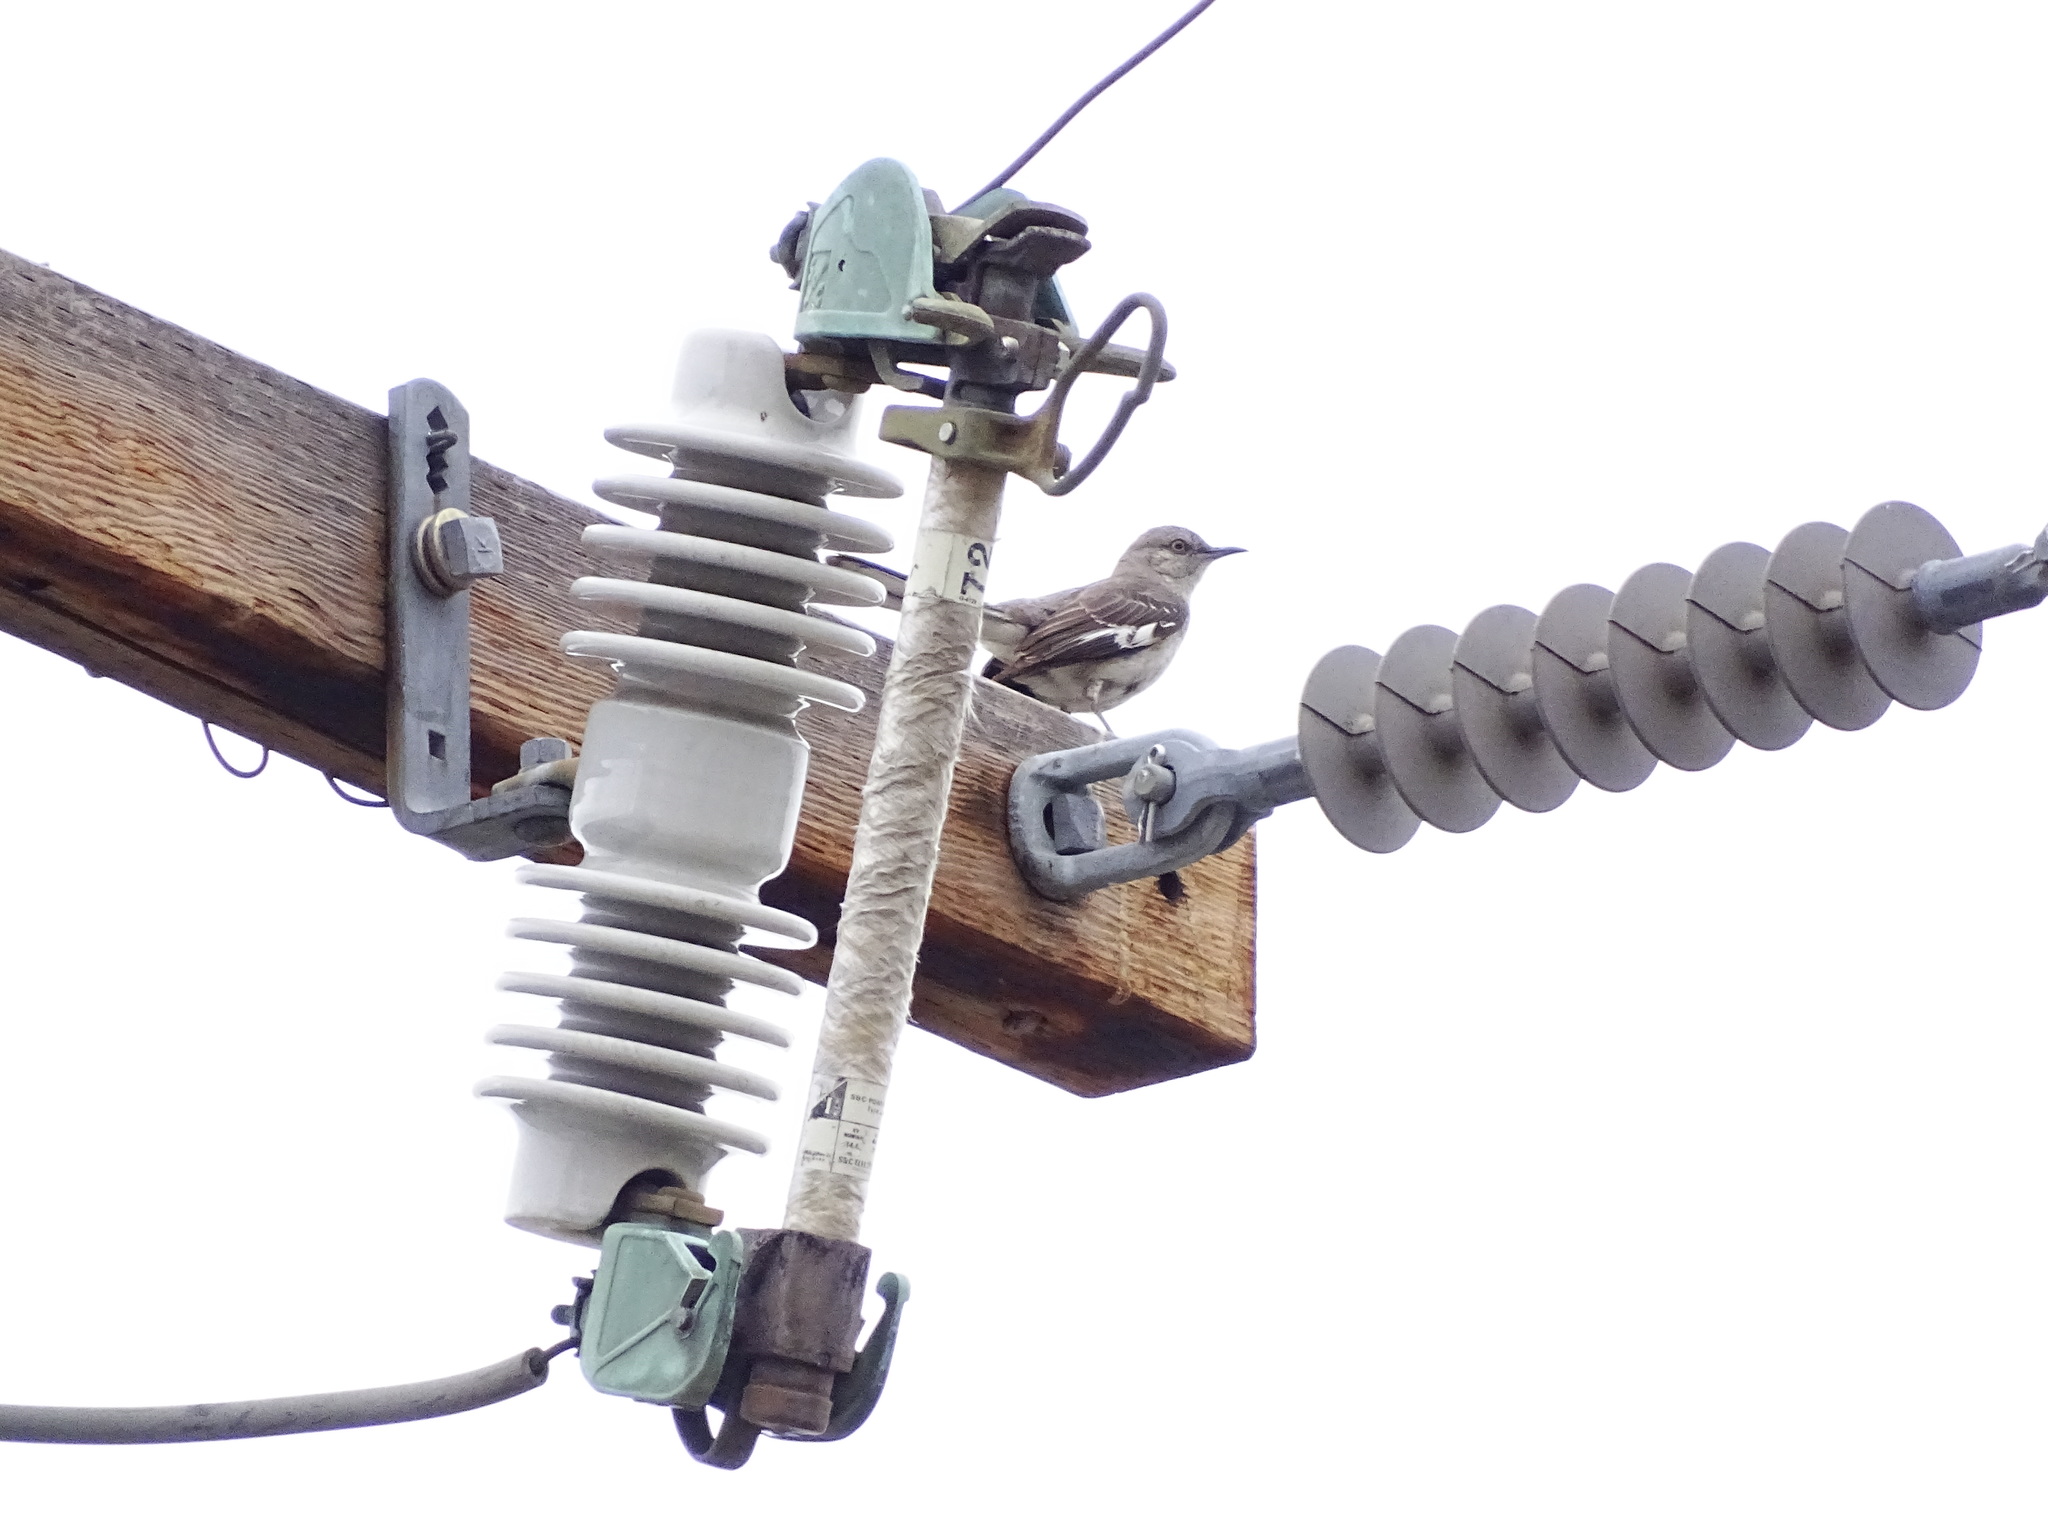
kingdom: Animalia
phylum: Chordata
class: Aves
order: Passeriformes
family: Mimidae
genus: Mimus
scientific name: Mimus polyglottos
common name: Northern mockingbird
